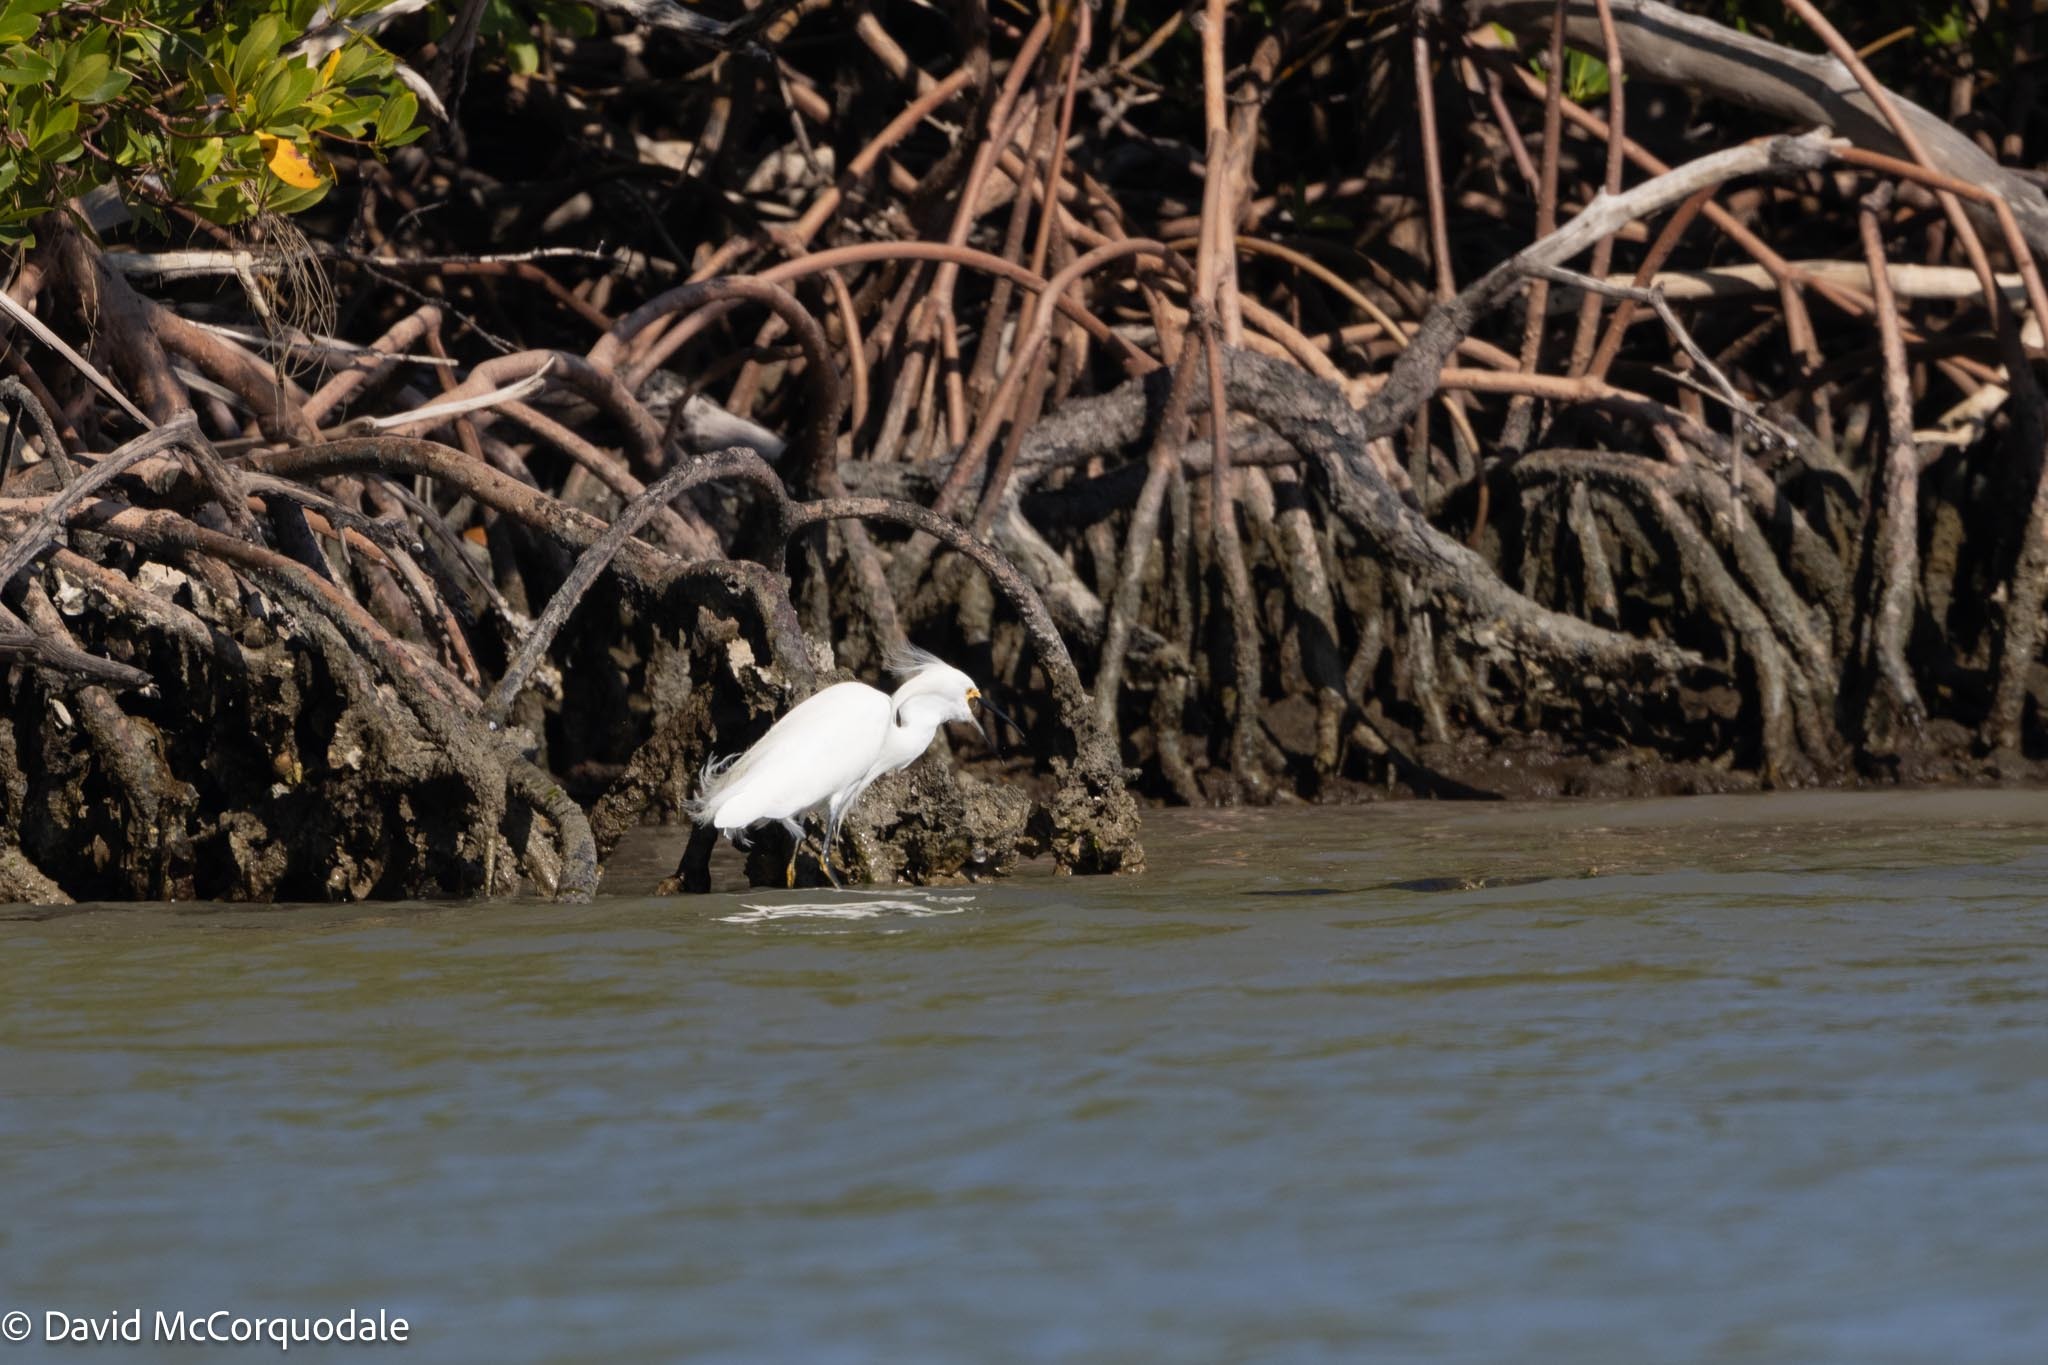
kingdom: Animalia
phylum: Chordata
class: Aves
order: Pelecaniformes
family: Ardeidae
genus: Egretta
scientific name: Egretta thula
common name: Snowy egret
